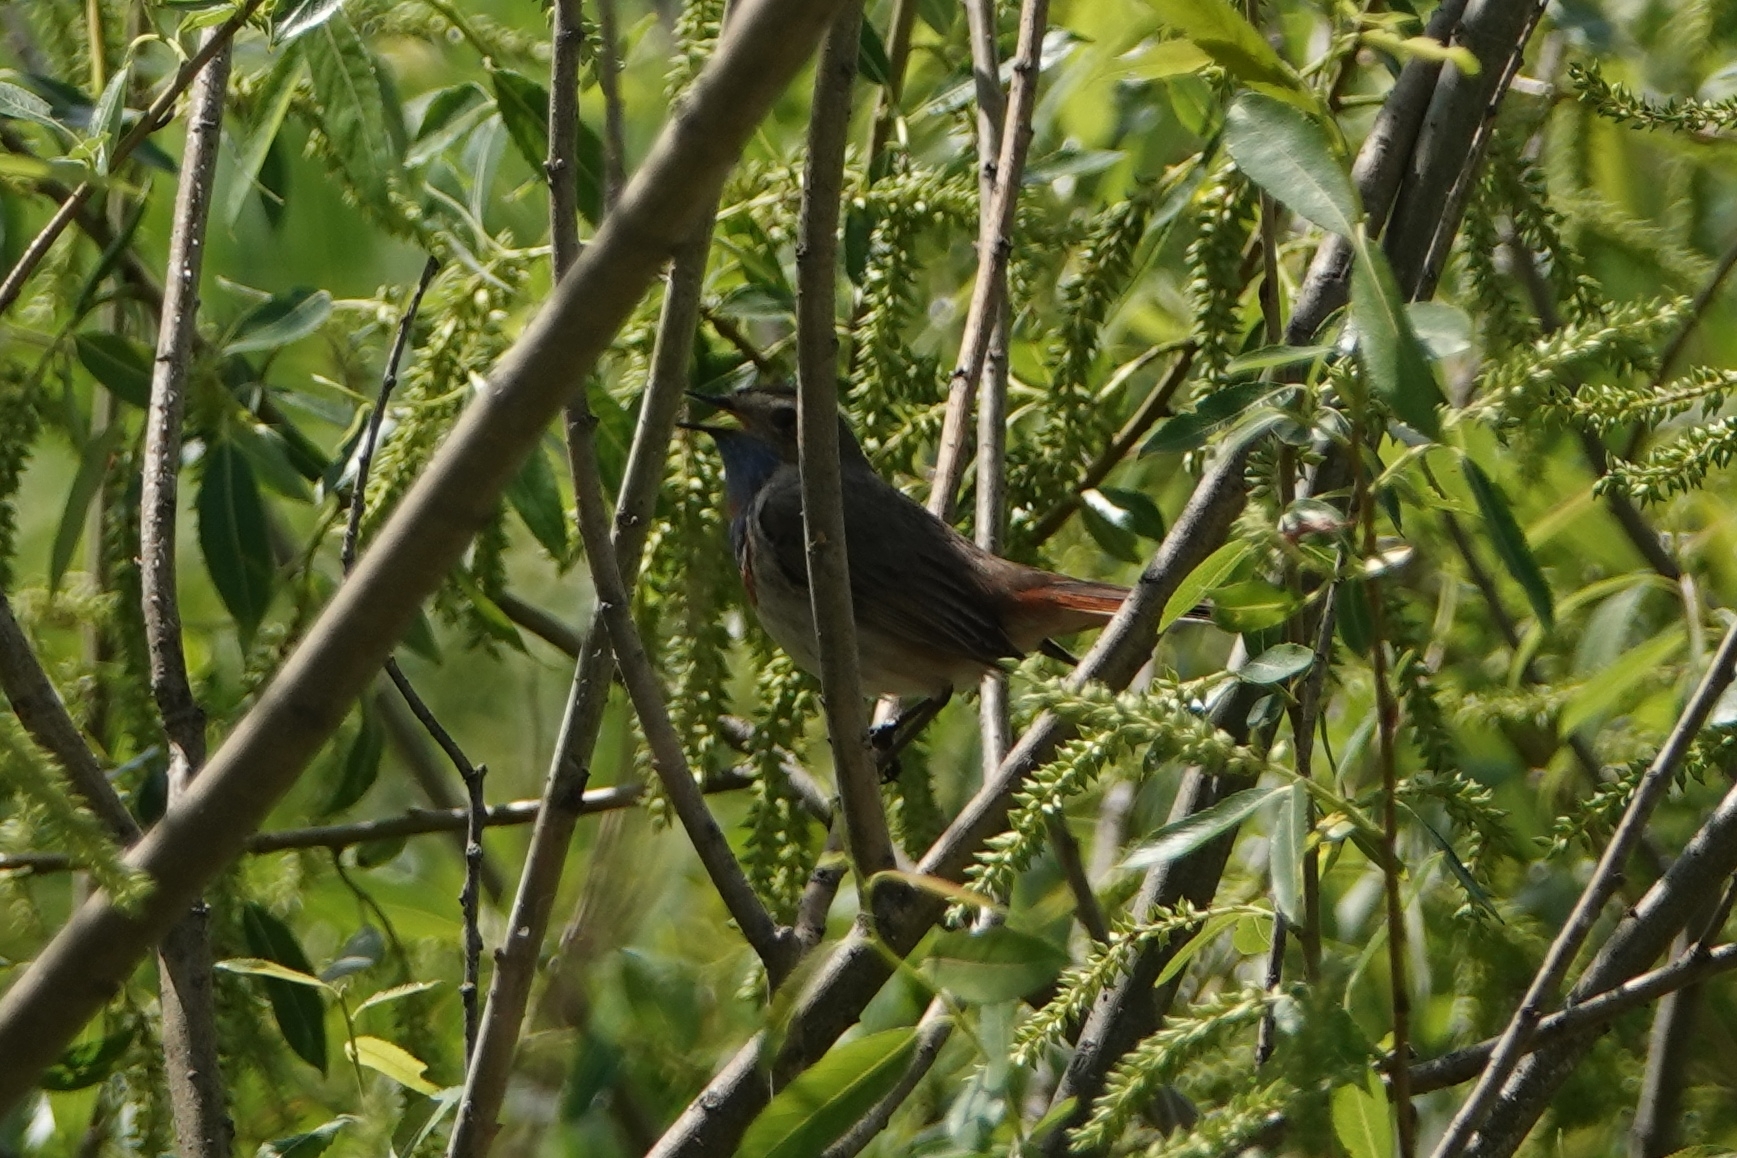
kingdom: Animalia
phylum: Chordata
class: Aves
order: Passeriformes
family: Muscicapidae
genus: Luscinia
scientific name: Luscinia svecica
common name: Bluethroat
